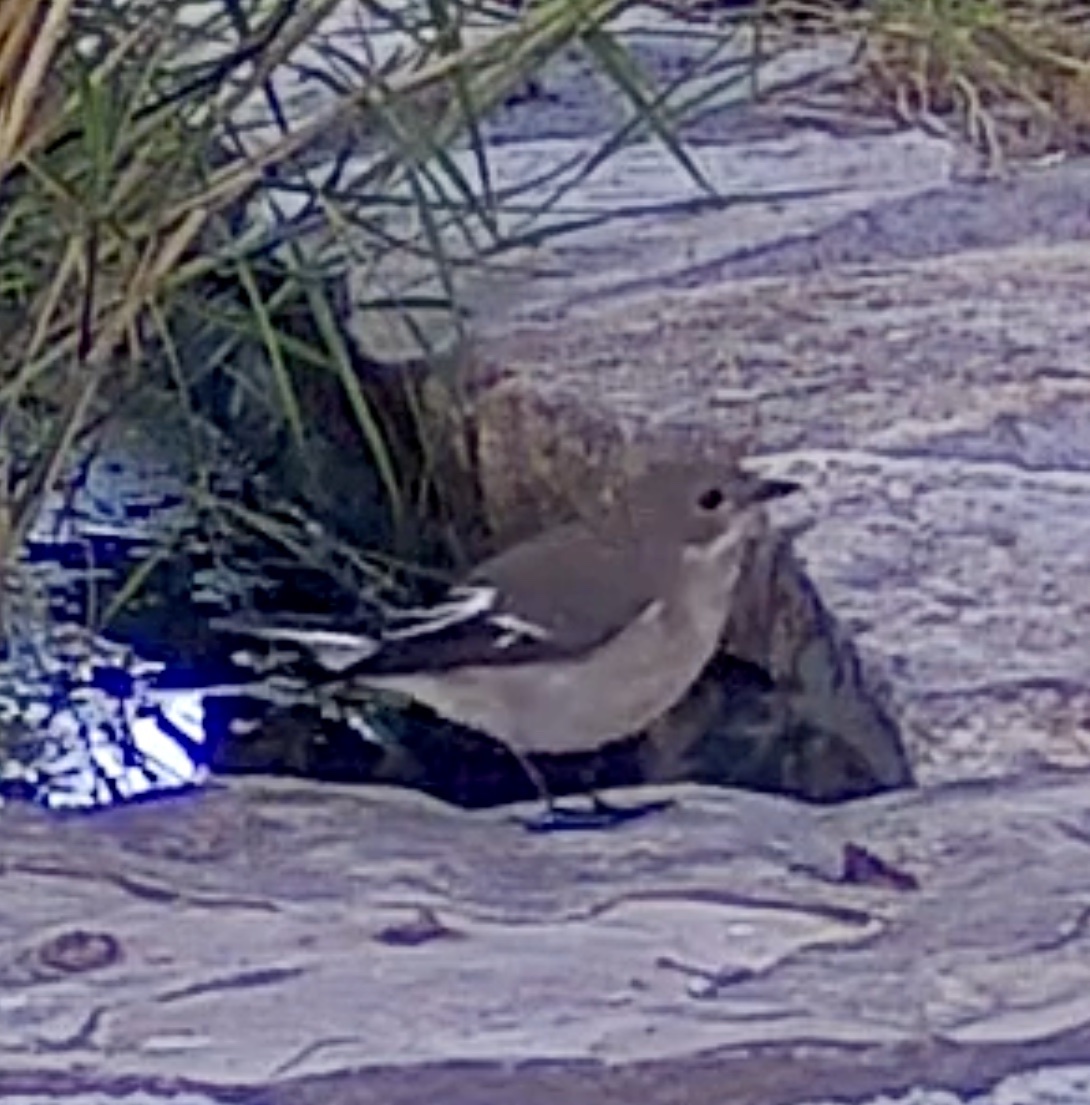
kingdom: Animalia
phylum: Chordata
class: Aves
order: Passeriformes
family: Muscicapidae
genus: Ficedula
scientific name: Ficedula hypoleuca
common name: European pied flycatcher
